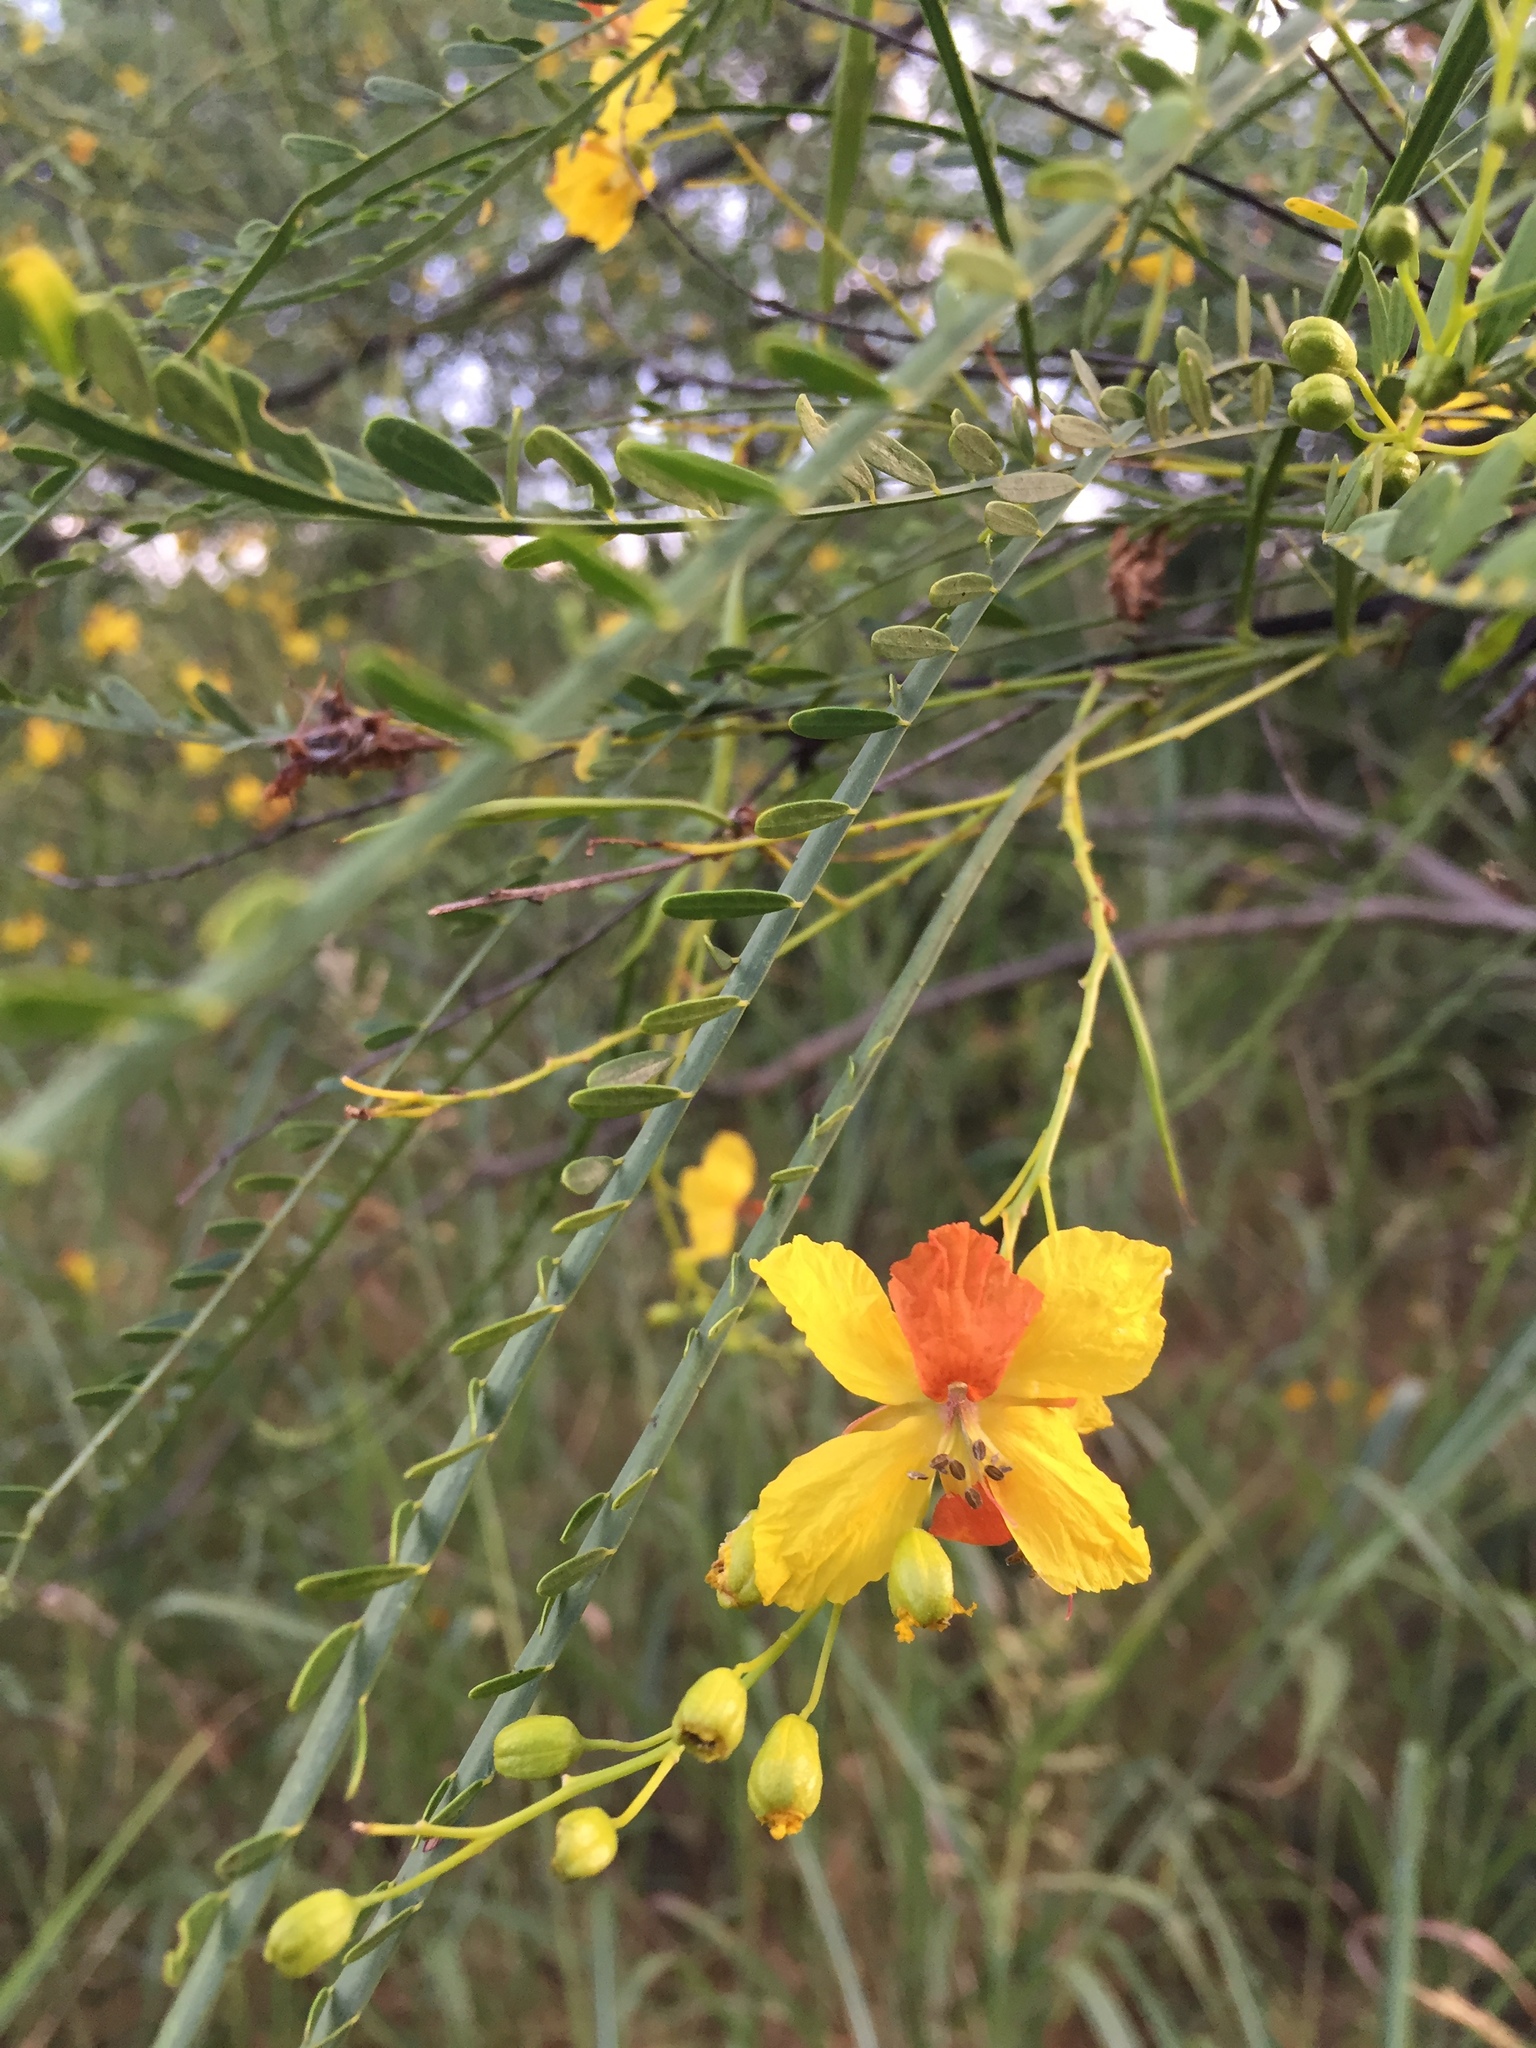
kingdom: Plantae
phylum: Tracheophyta
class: Magnoliopsida
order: Fabales
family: Fabaceae
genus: Parkinsonia
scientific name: Parkinsonia aculeata
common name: Jerusalem thorn
